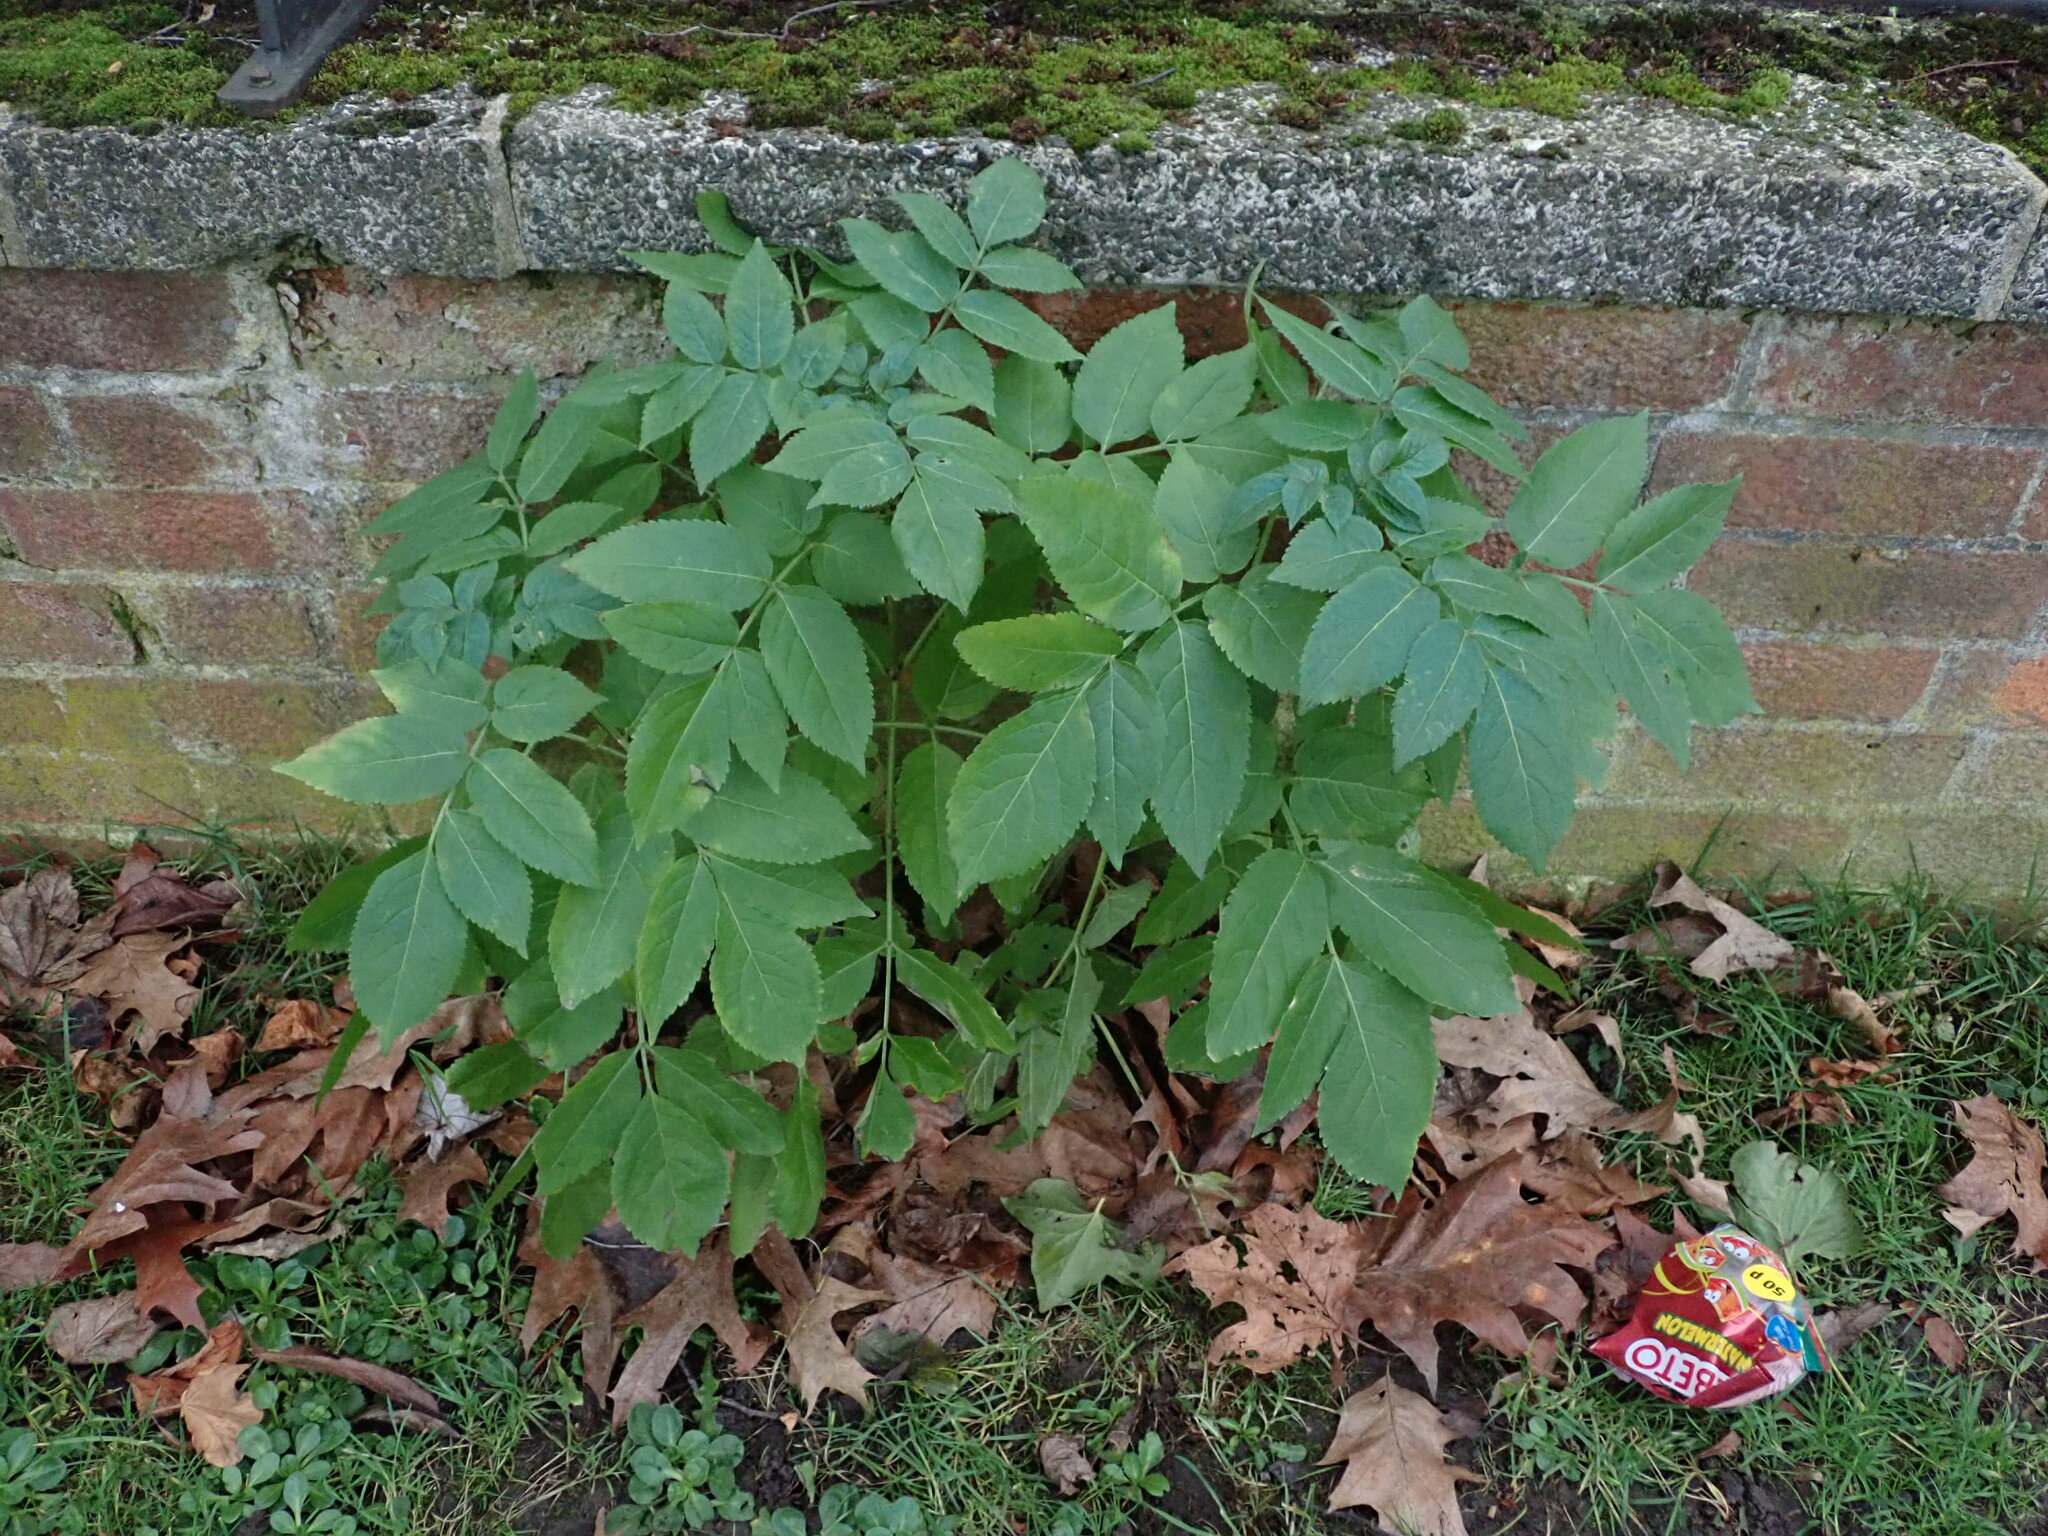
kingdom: Plantae
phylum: Tracheophyta
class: Magnoliopsida
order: Dipsacales
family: Viburnaceae
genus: Sambucus
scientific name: Sambucus nigra
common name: Elder
